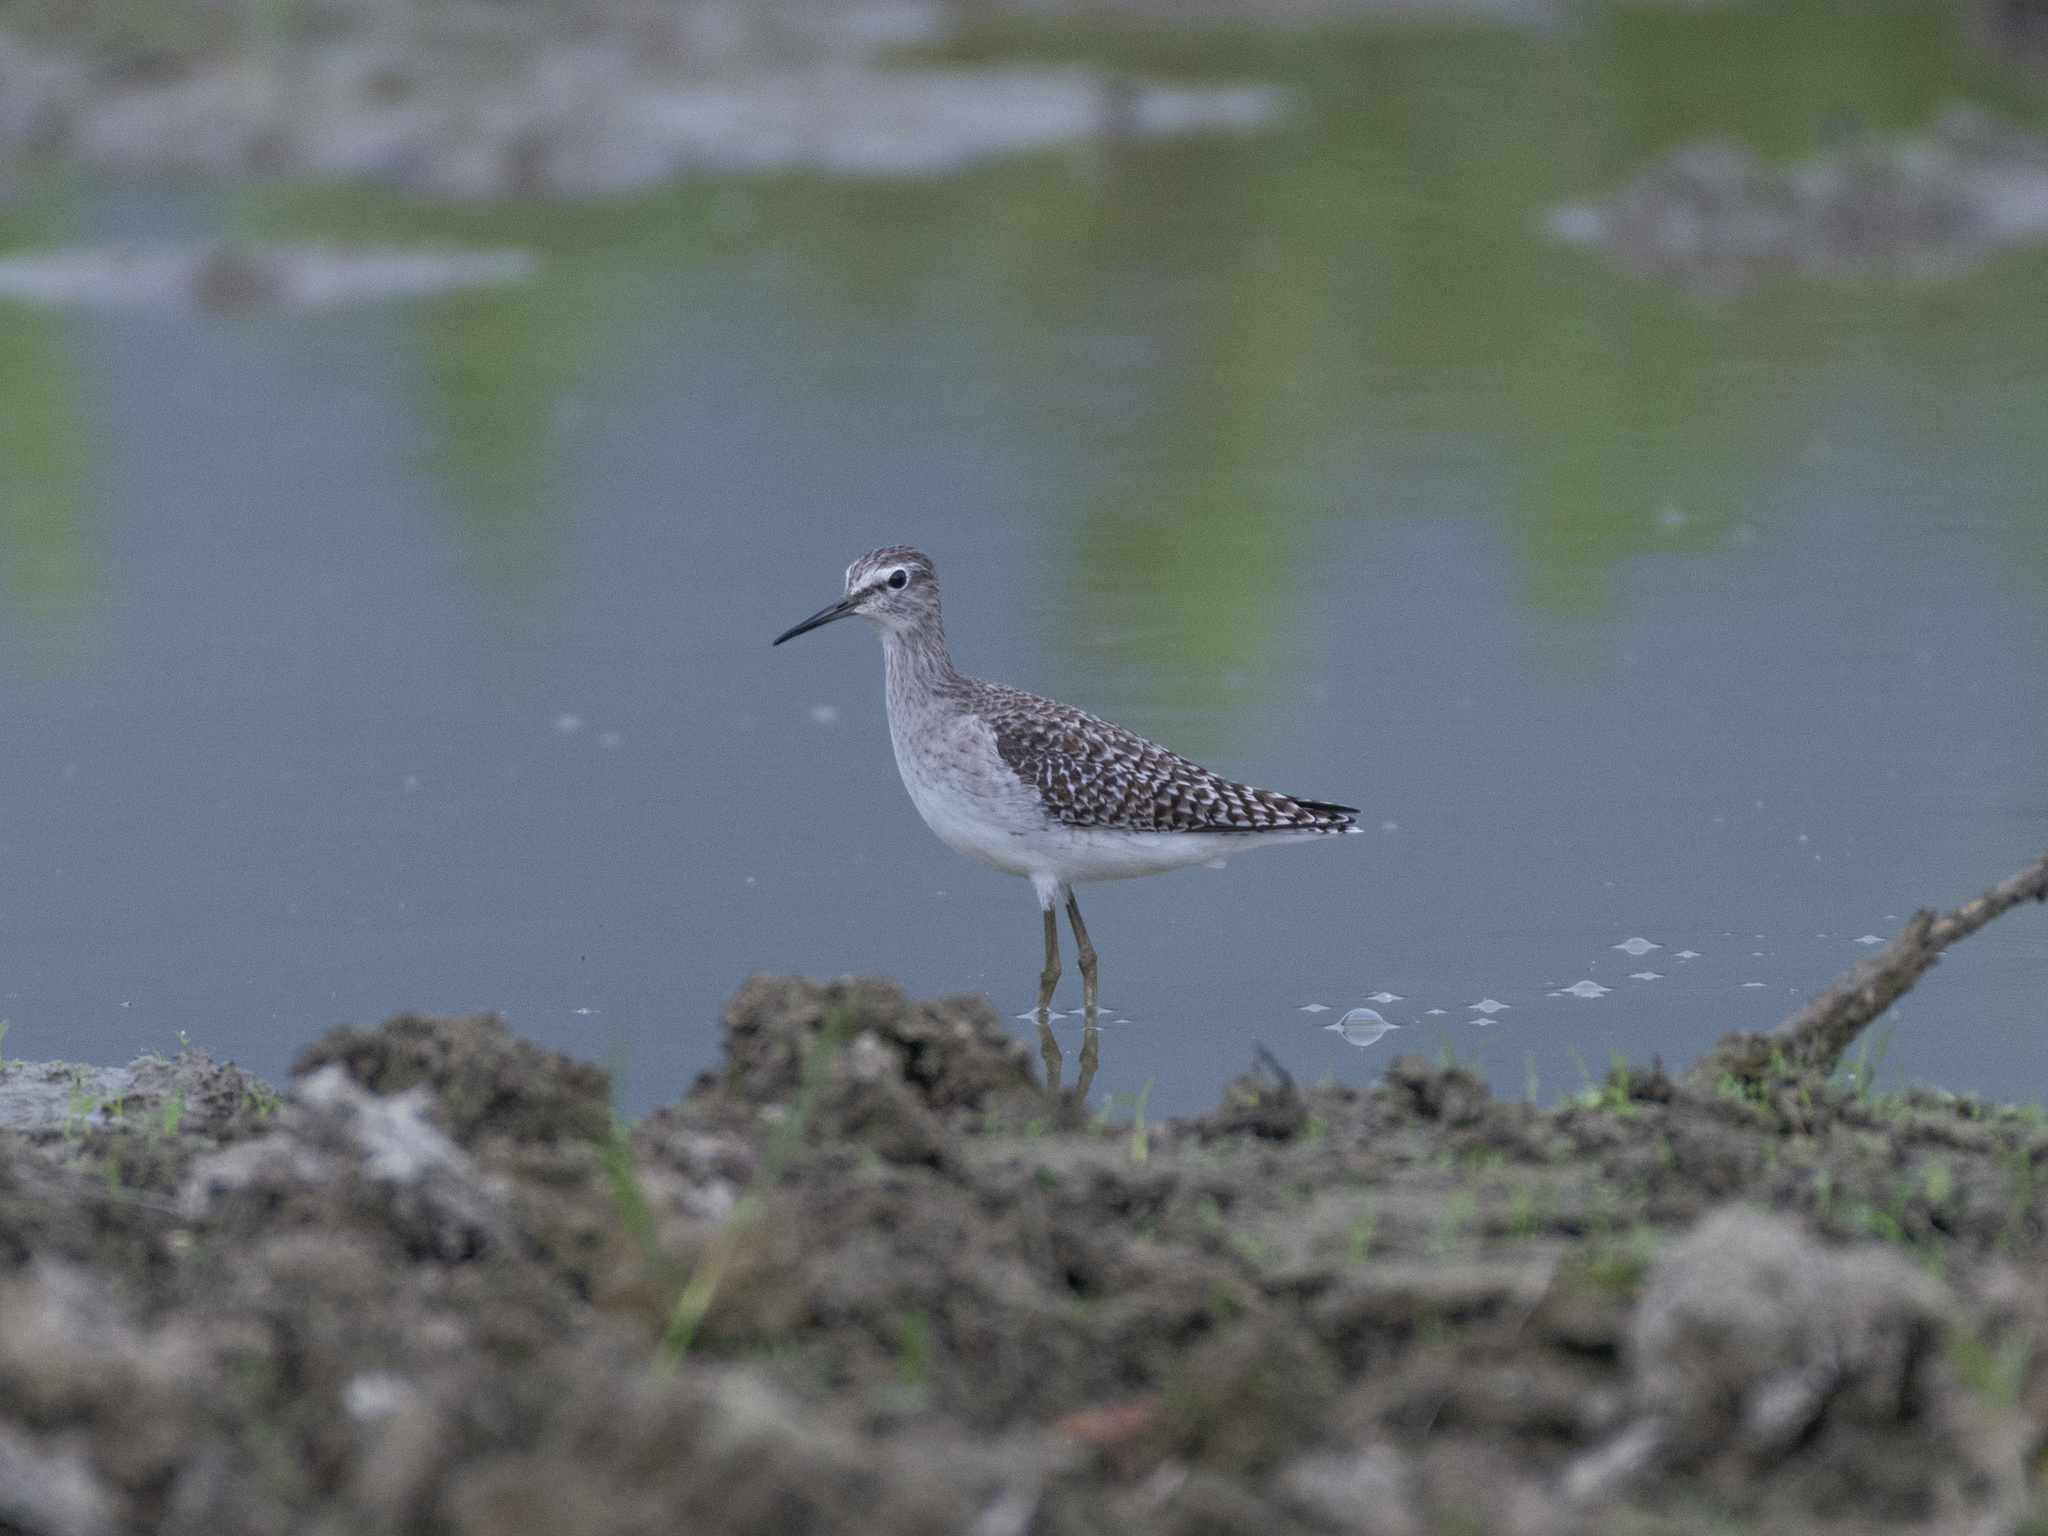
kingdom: Animalia
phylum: Chordata
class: Aves
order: Charadriiformes
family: Scolopacidae
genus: Tringa
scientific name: Tringa glareola
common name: Wood sandpiper
